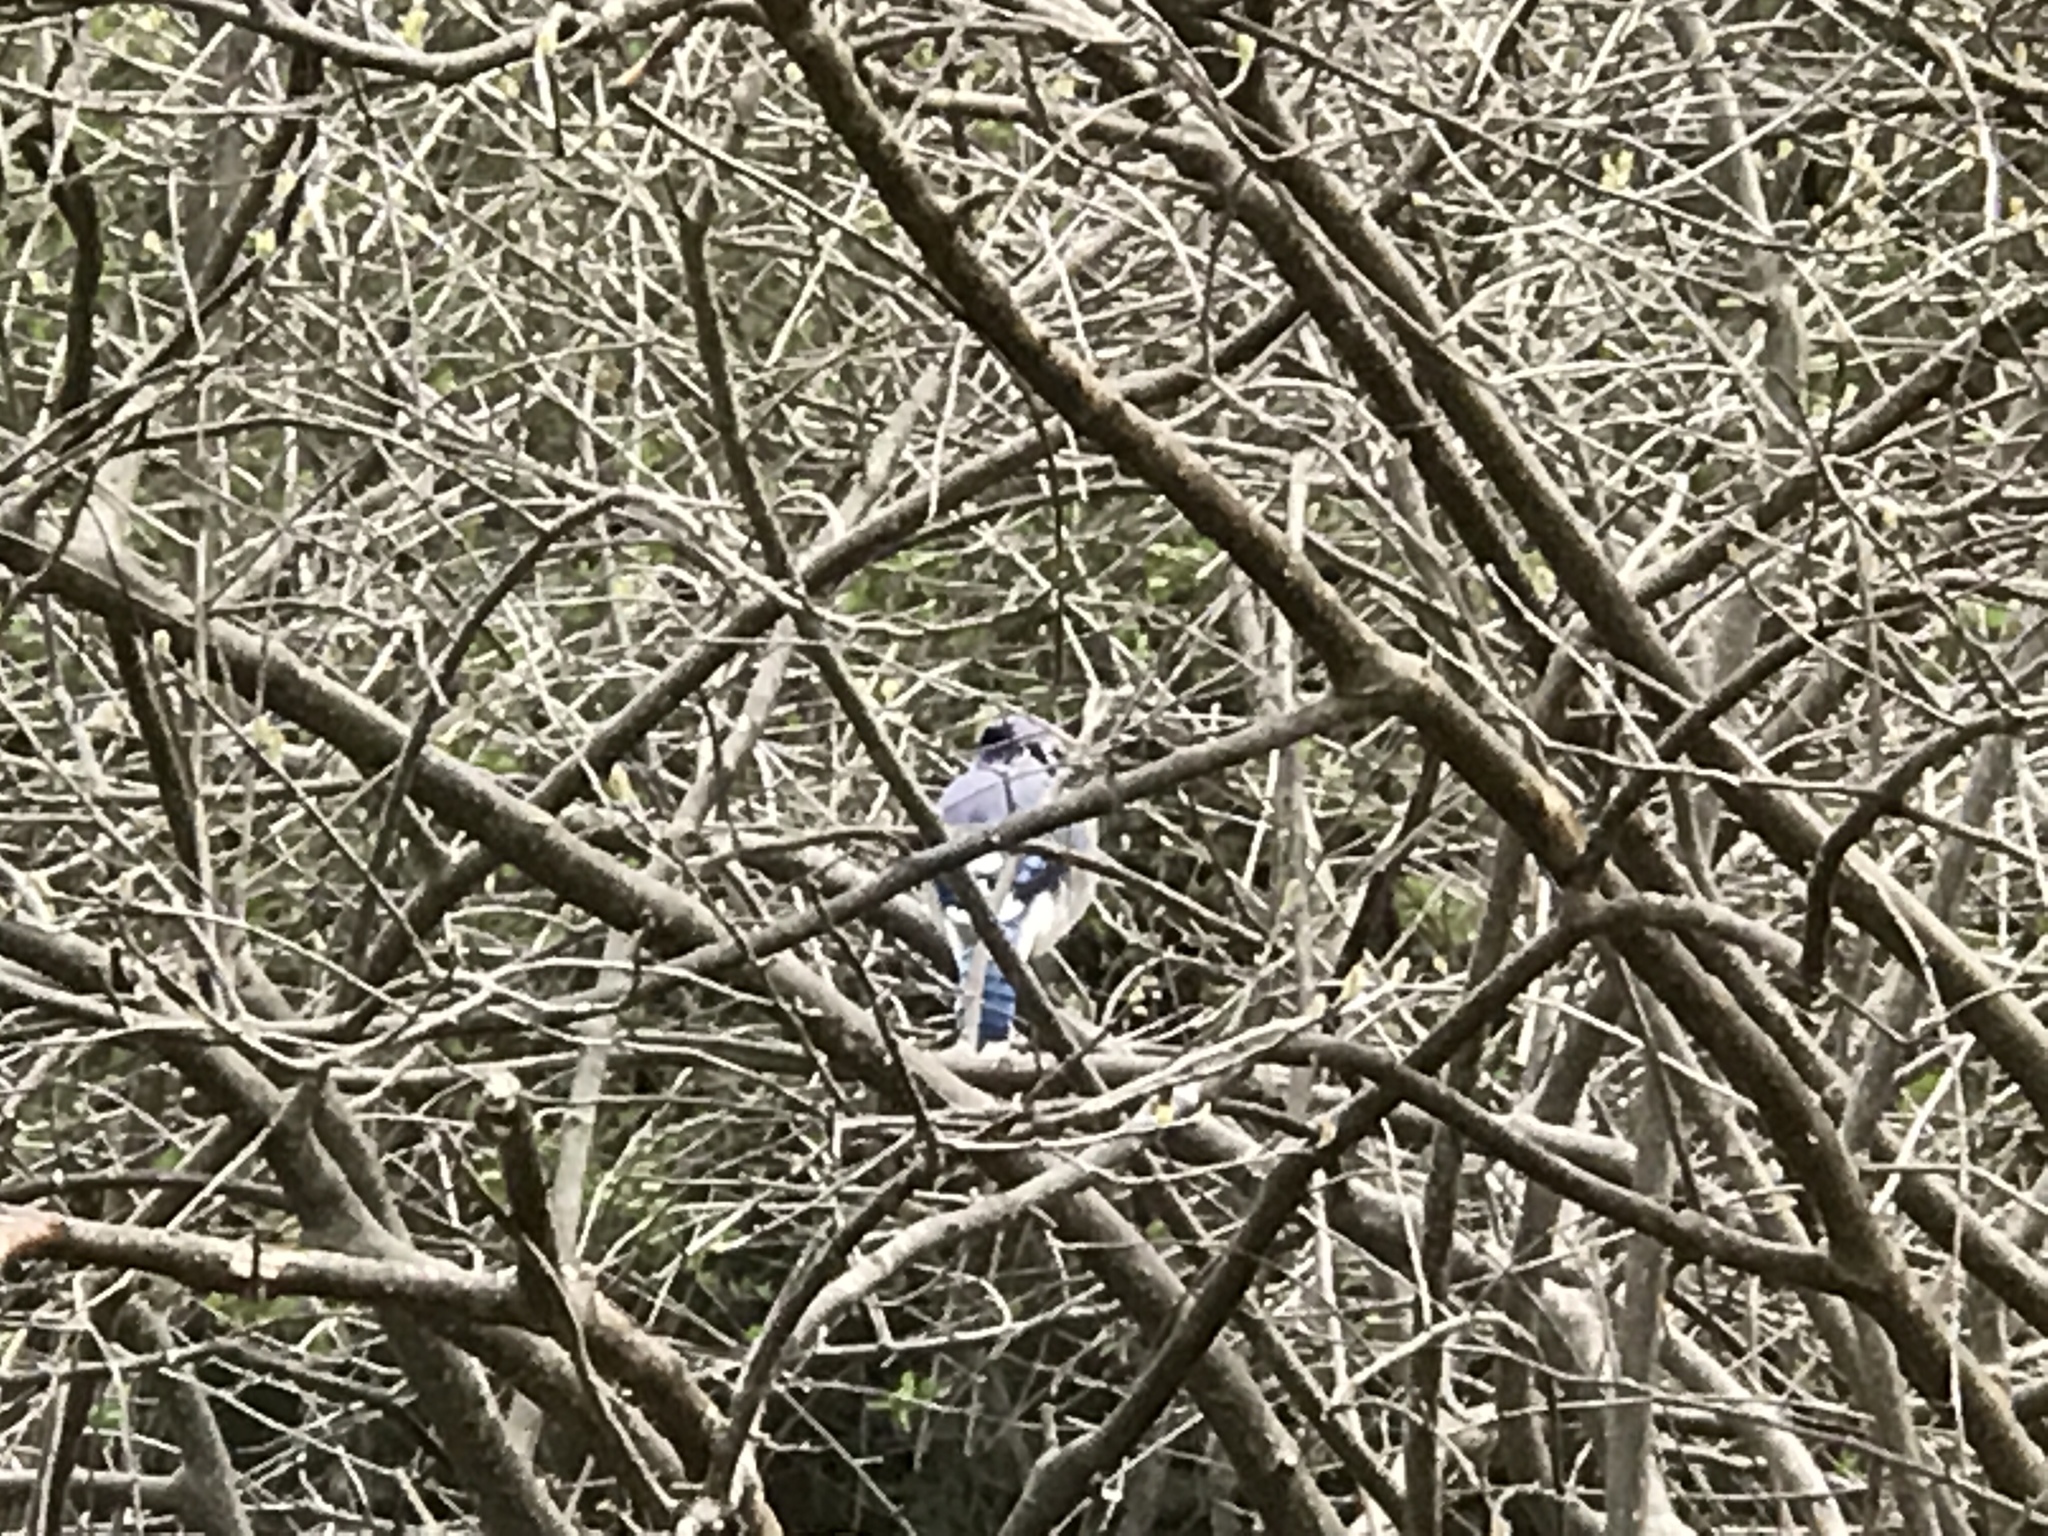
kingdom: Animalia
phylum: Chordata
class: Aves
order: Passeriformes
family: Corvidae
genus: Cyanocitta
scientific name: Cyanocitta cristata
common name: Blue jay
